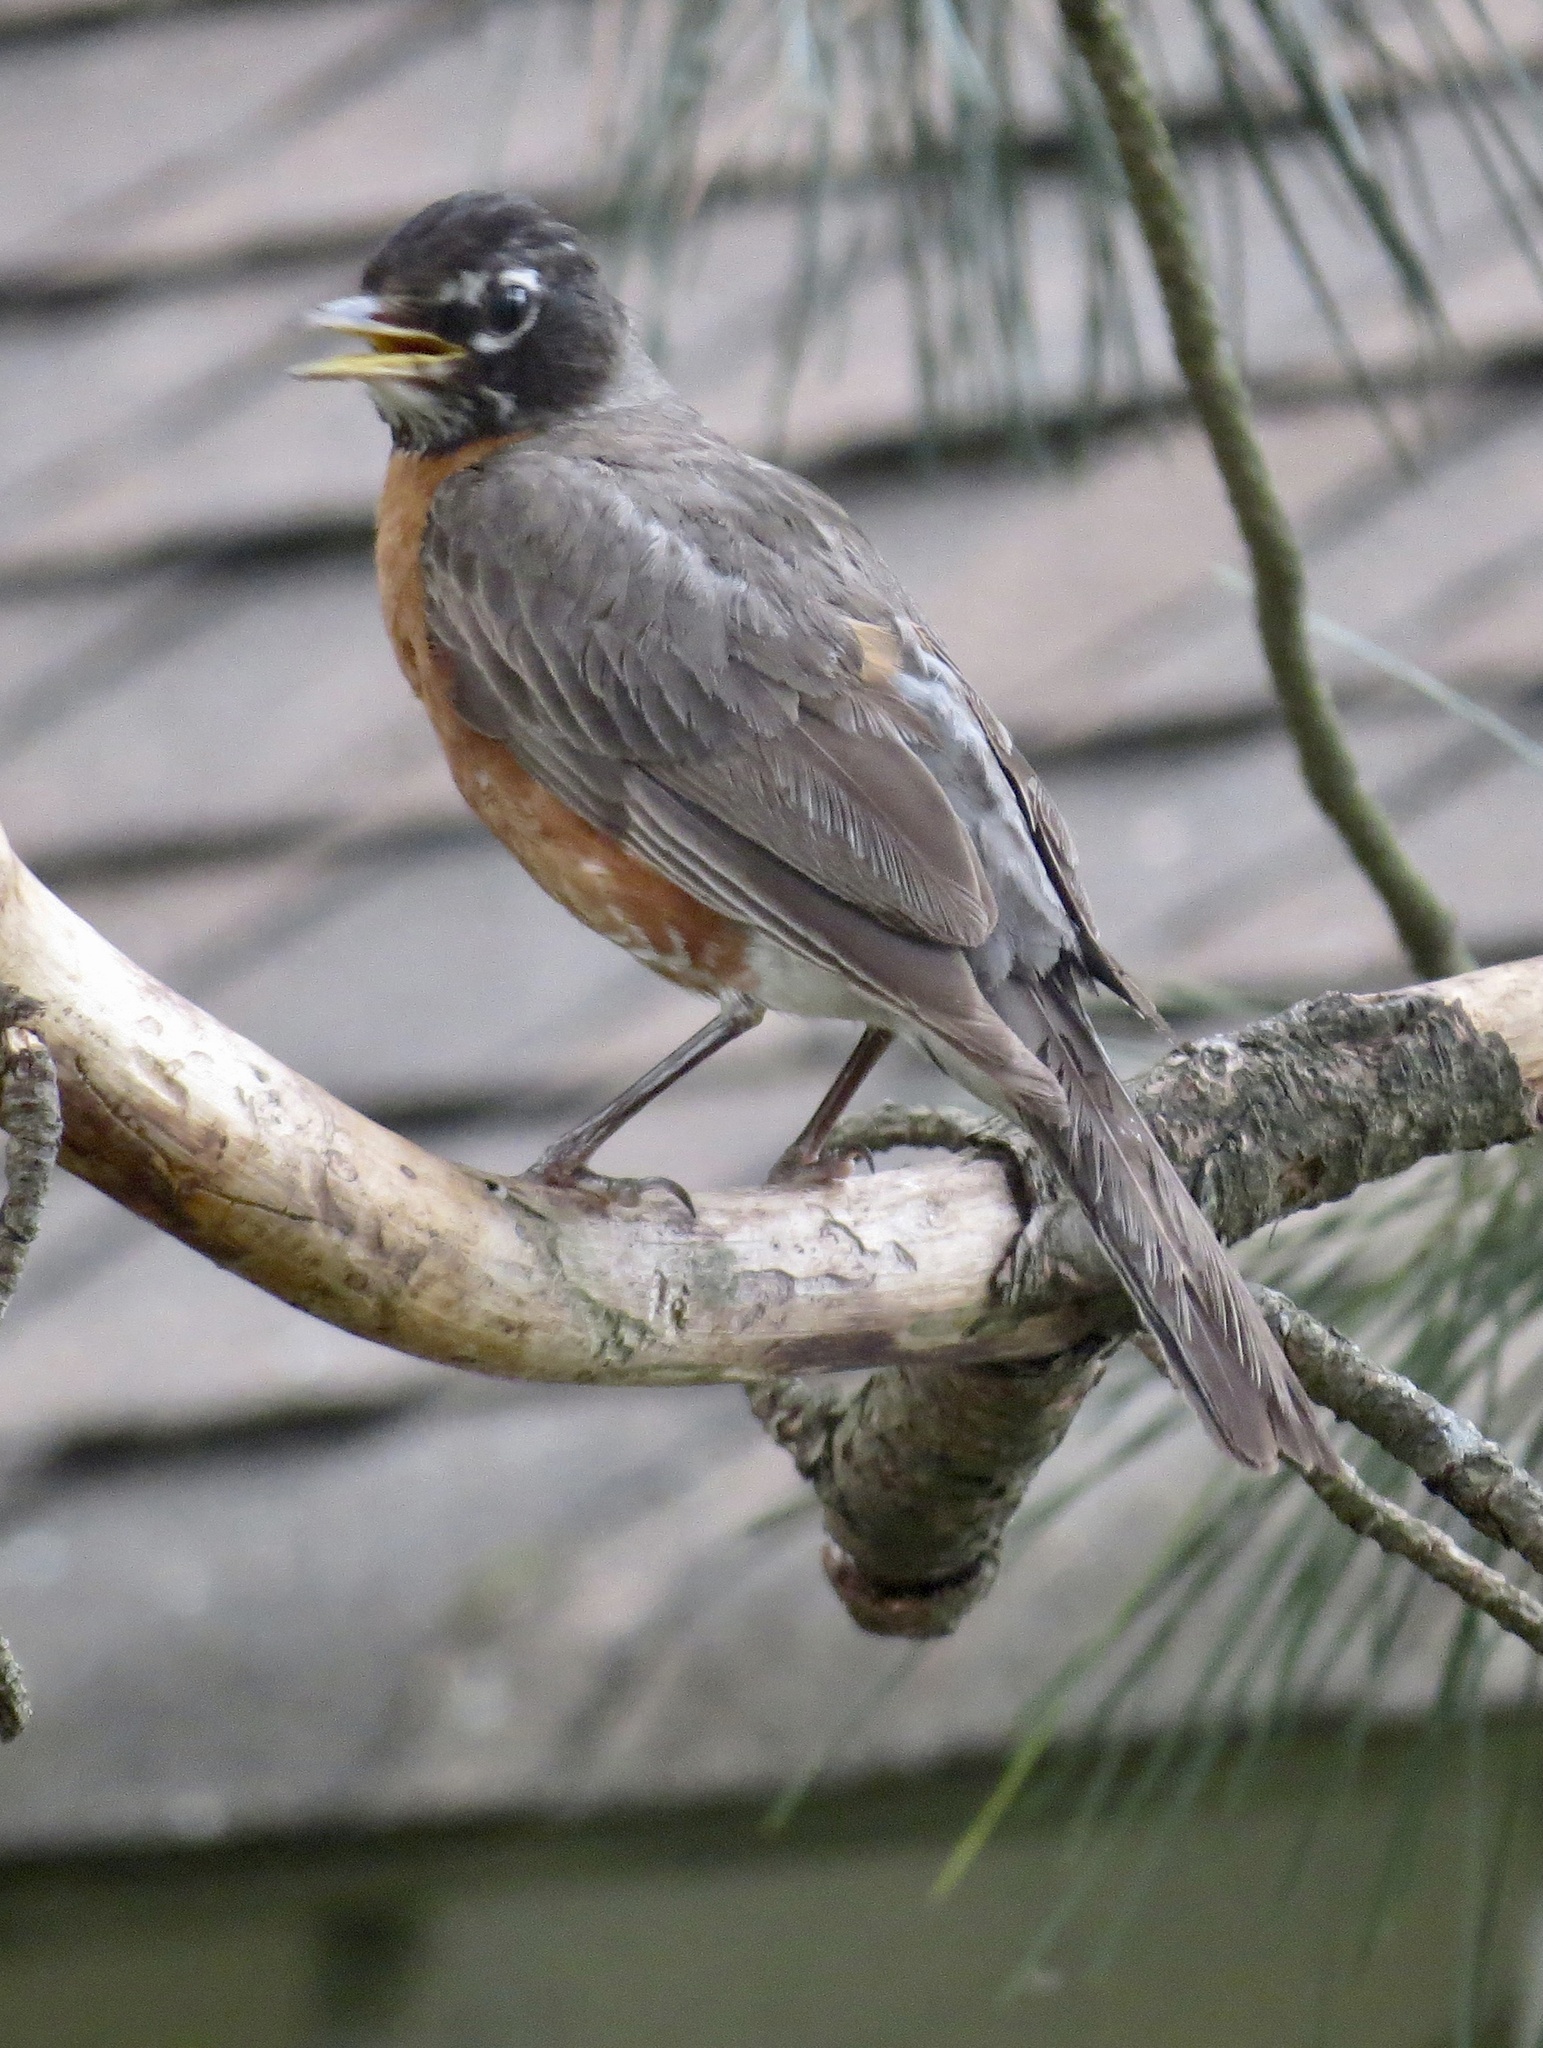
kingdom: Animalia
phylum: Chordata
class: Aves
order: Passeriformes
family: Turdidae
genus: Turdus
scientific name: Turdus migratorius
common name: American robin
